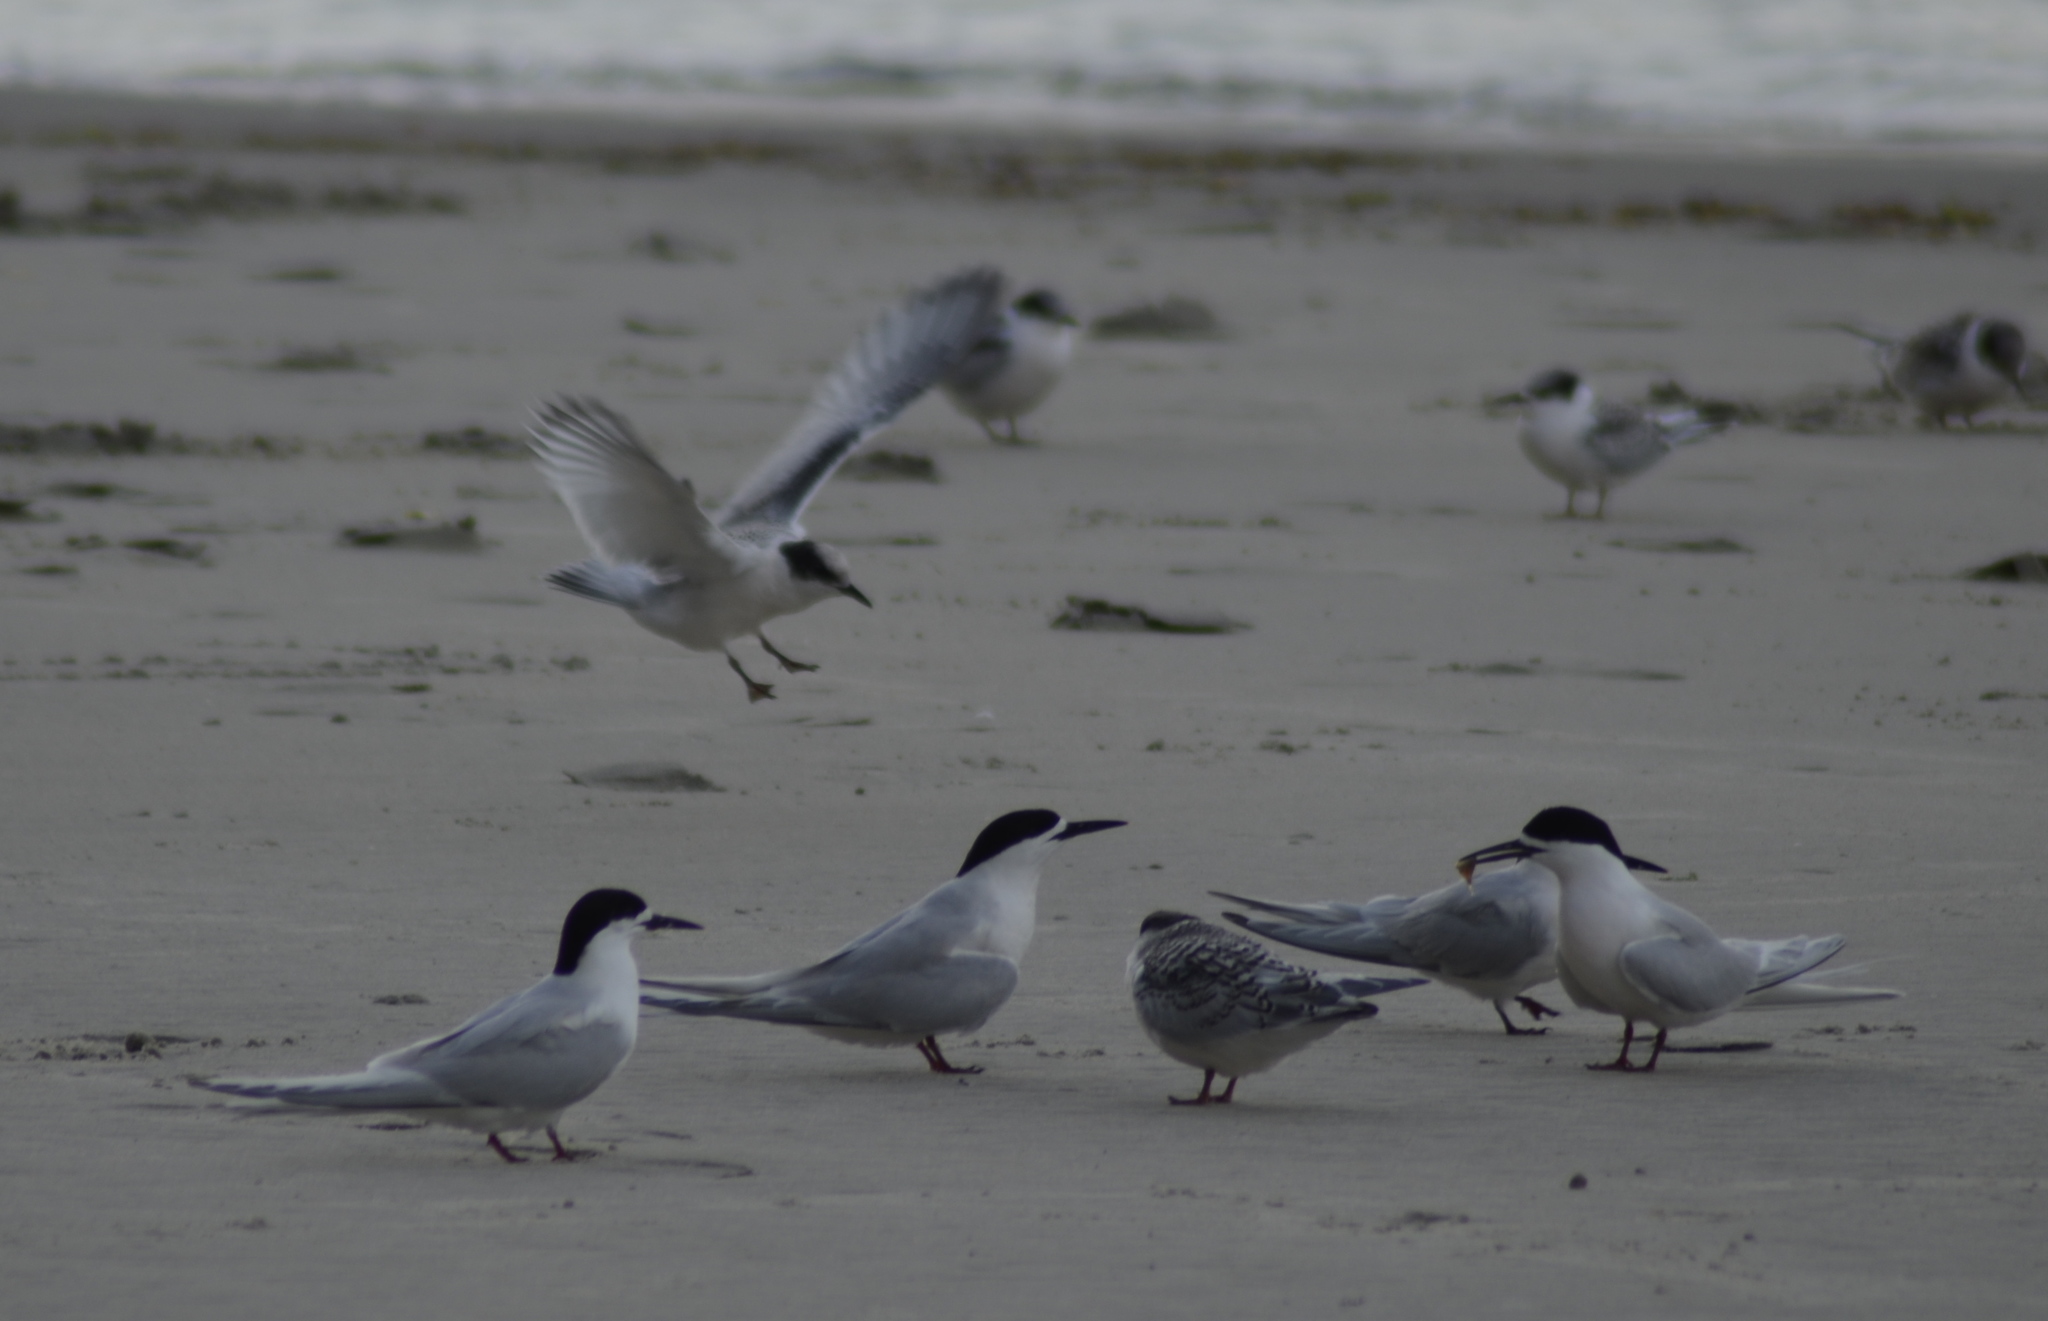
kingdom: Animalia
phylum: Chordata
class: Aves
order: Charadriiformes
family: Laridae
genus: Sterna
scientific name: Sterna striata
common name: White-fronted tern
